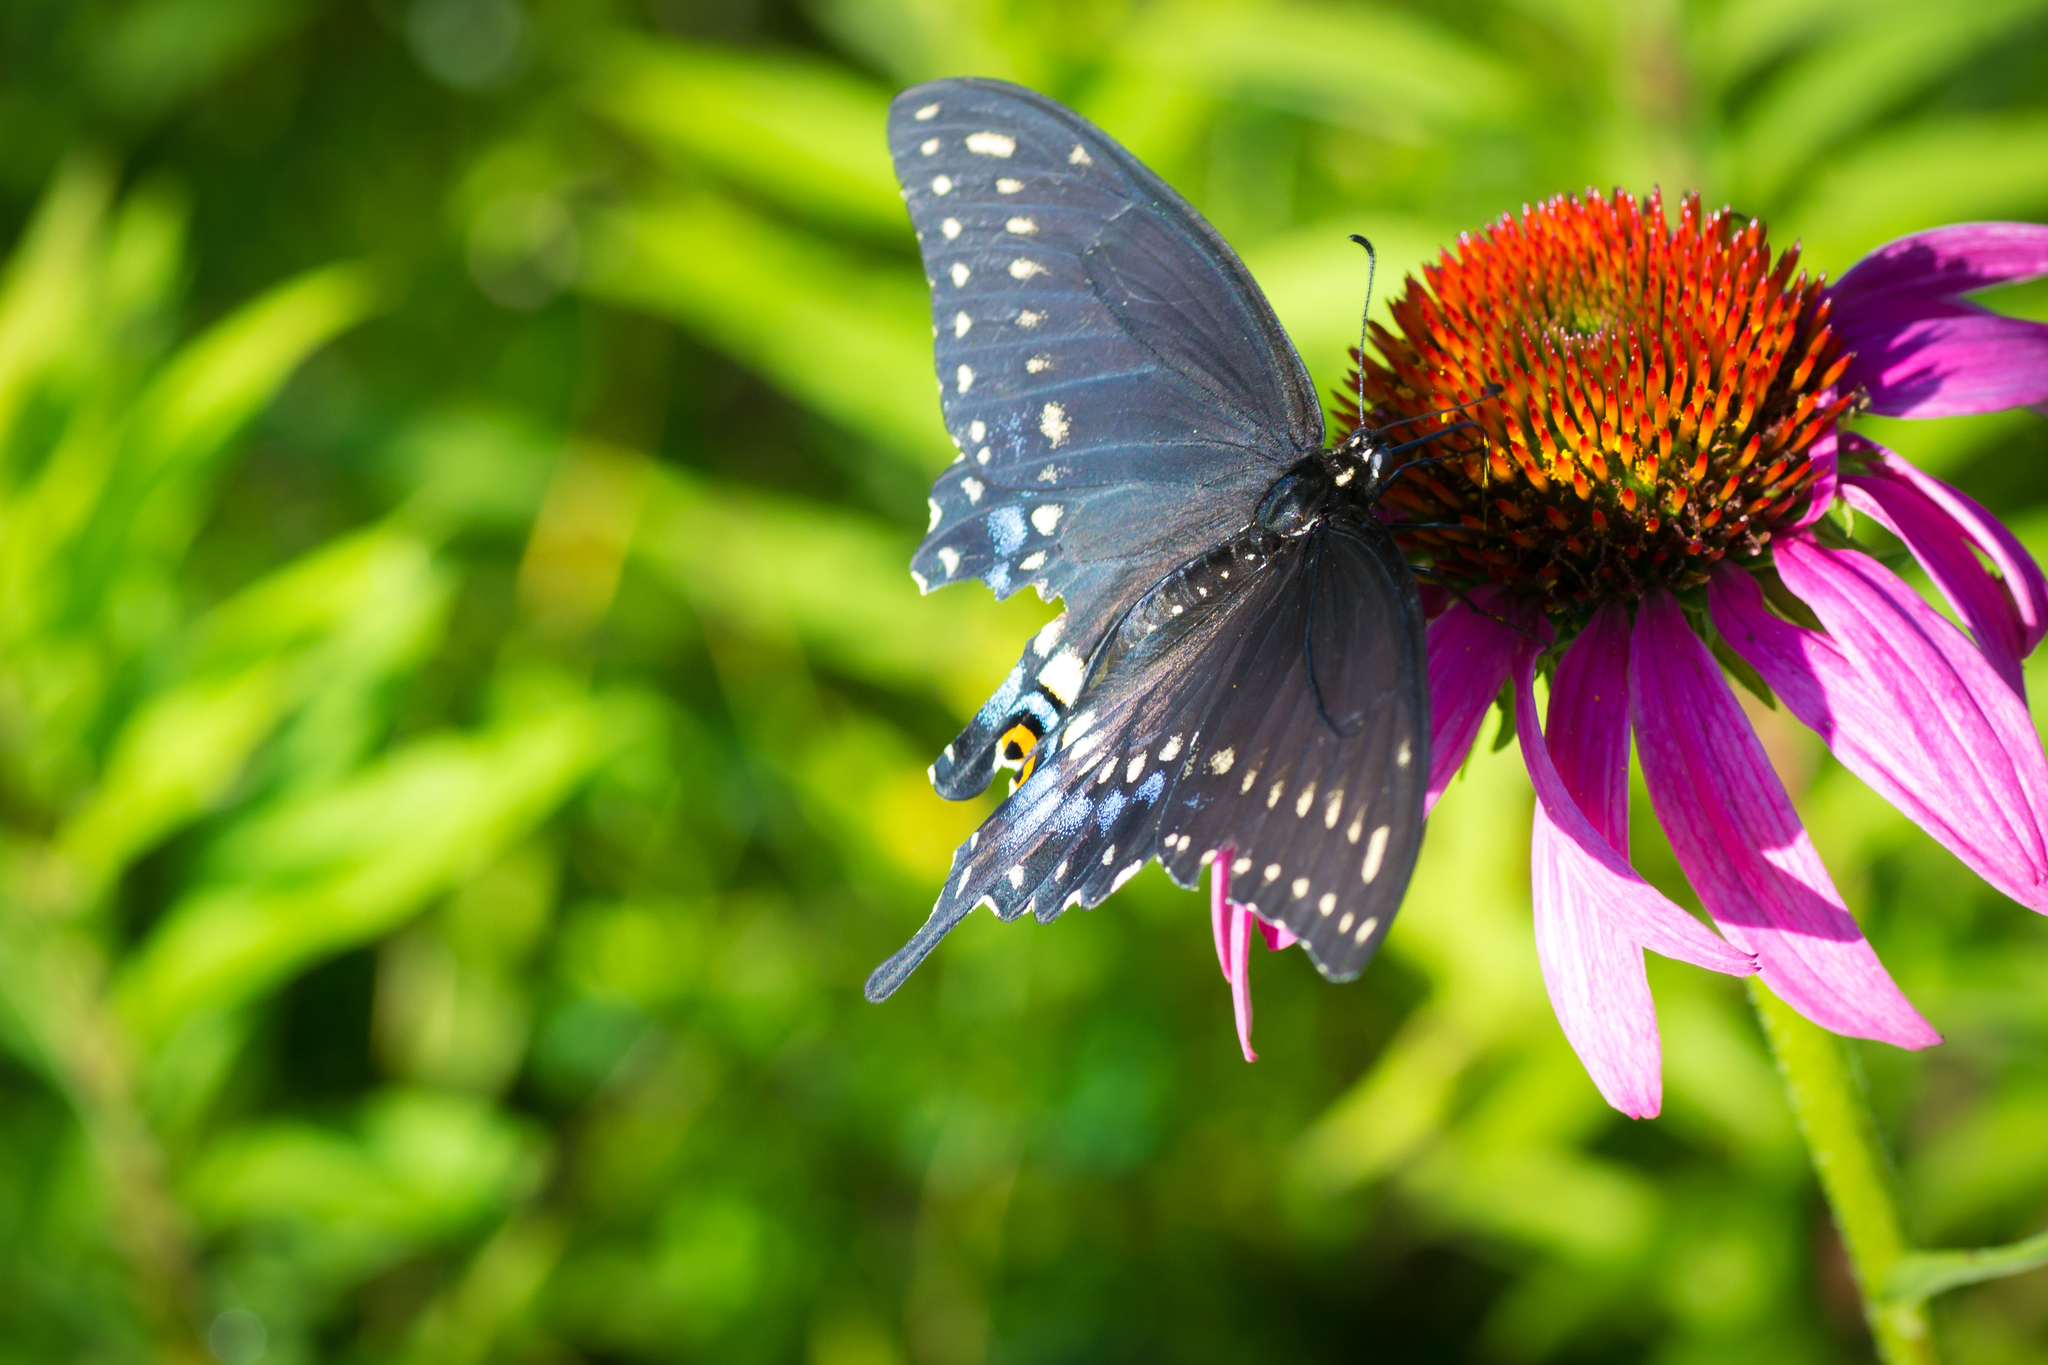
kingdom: Animalia
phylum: Arthropoda
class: Insecta
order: Lepidoptera
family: Papilionidae
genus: Papilio
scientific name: Papilio polyxenes
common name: Black swallowtail
